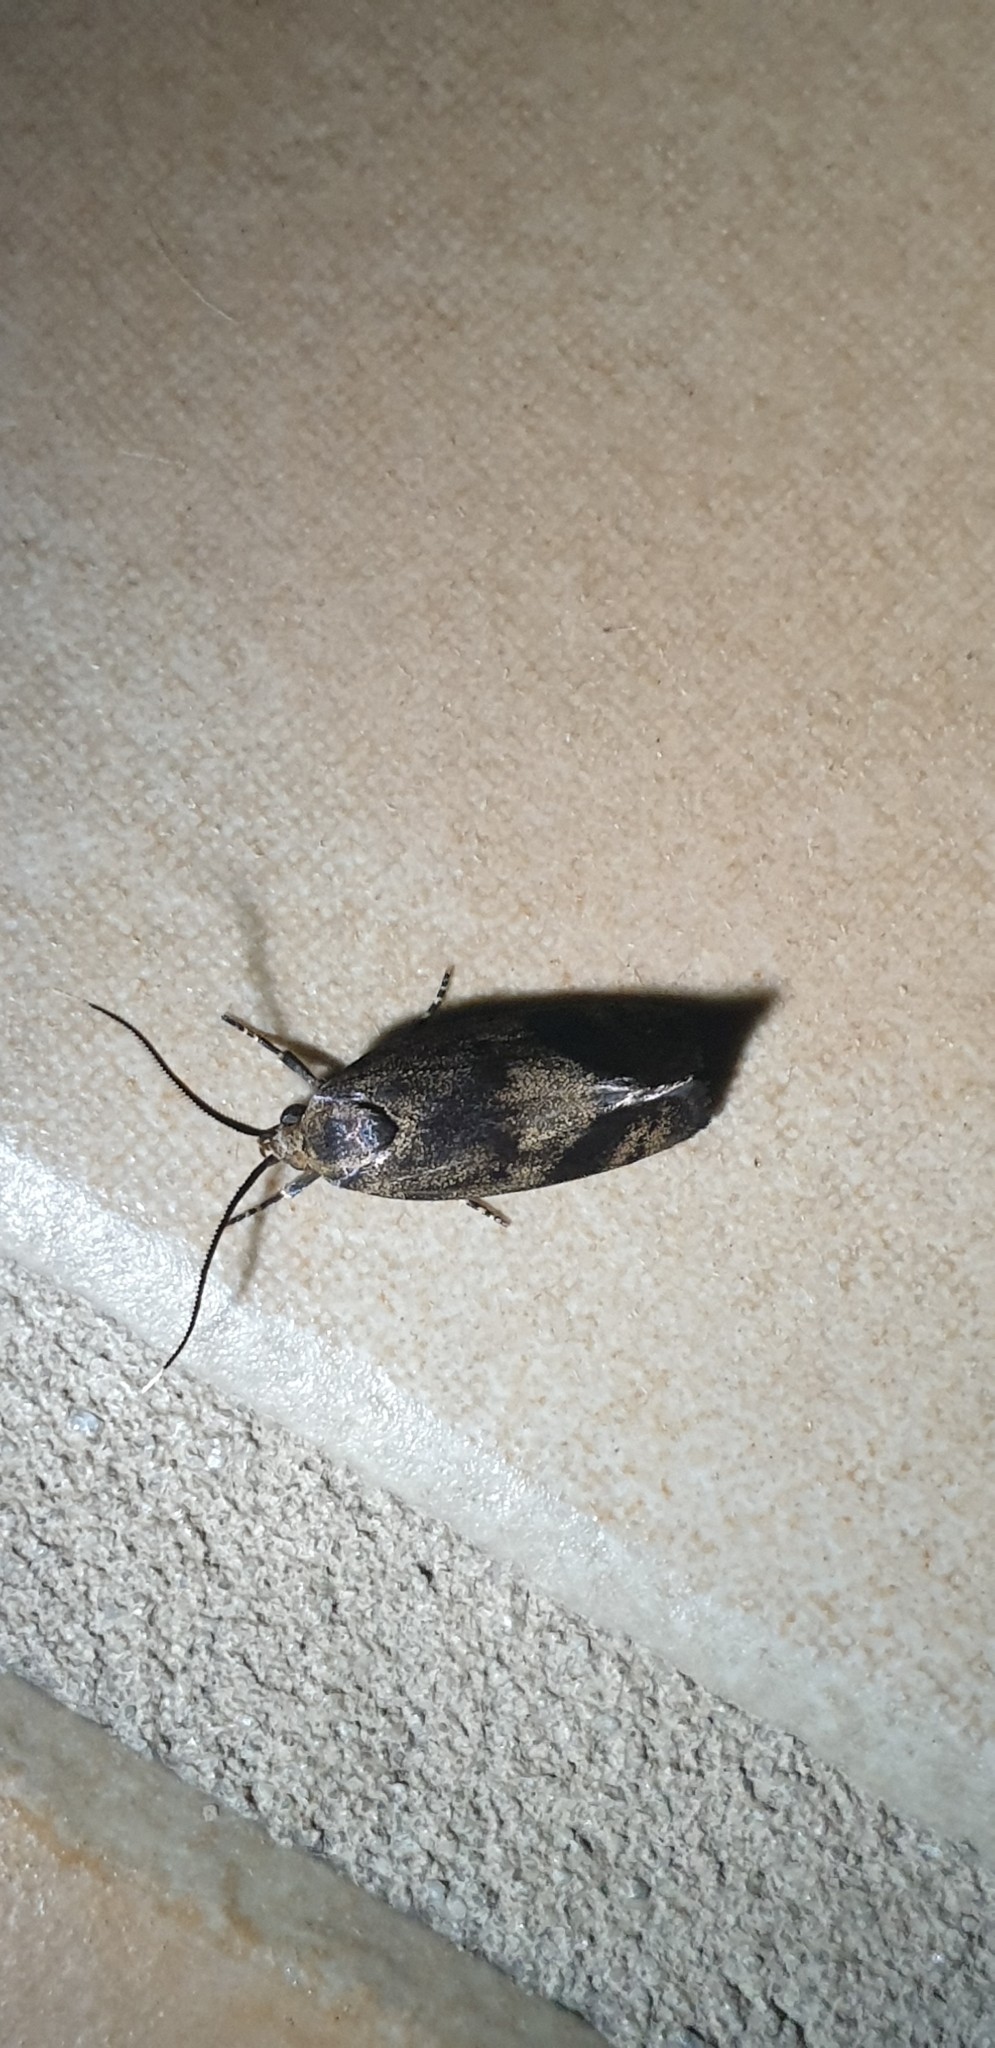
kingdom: Animalia
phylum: Arthropoda
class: Insecta
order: Lepidoptera
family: Oecophoridae
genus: Pycnocera
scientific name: Pycnocera hypoxantha
